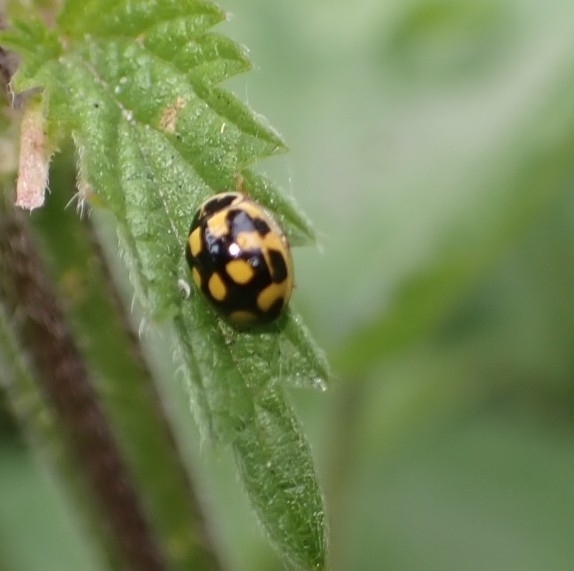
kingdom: Animalia
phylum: Arthropoda
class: Insecta
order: Coleoptera
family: Coccinellidae
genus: Propylaea
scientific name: Propylaea quatuordecimpunctata
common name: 14-spotted ladybird beetle
